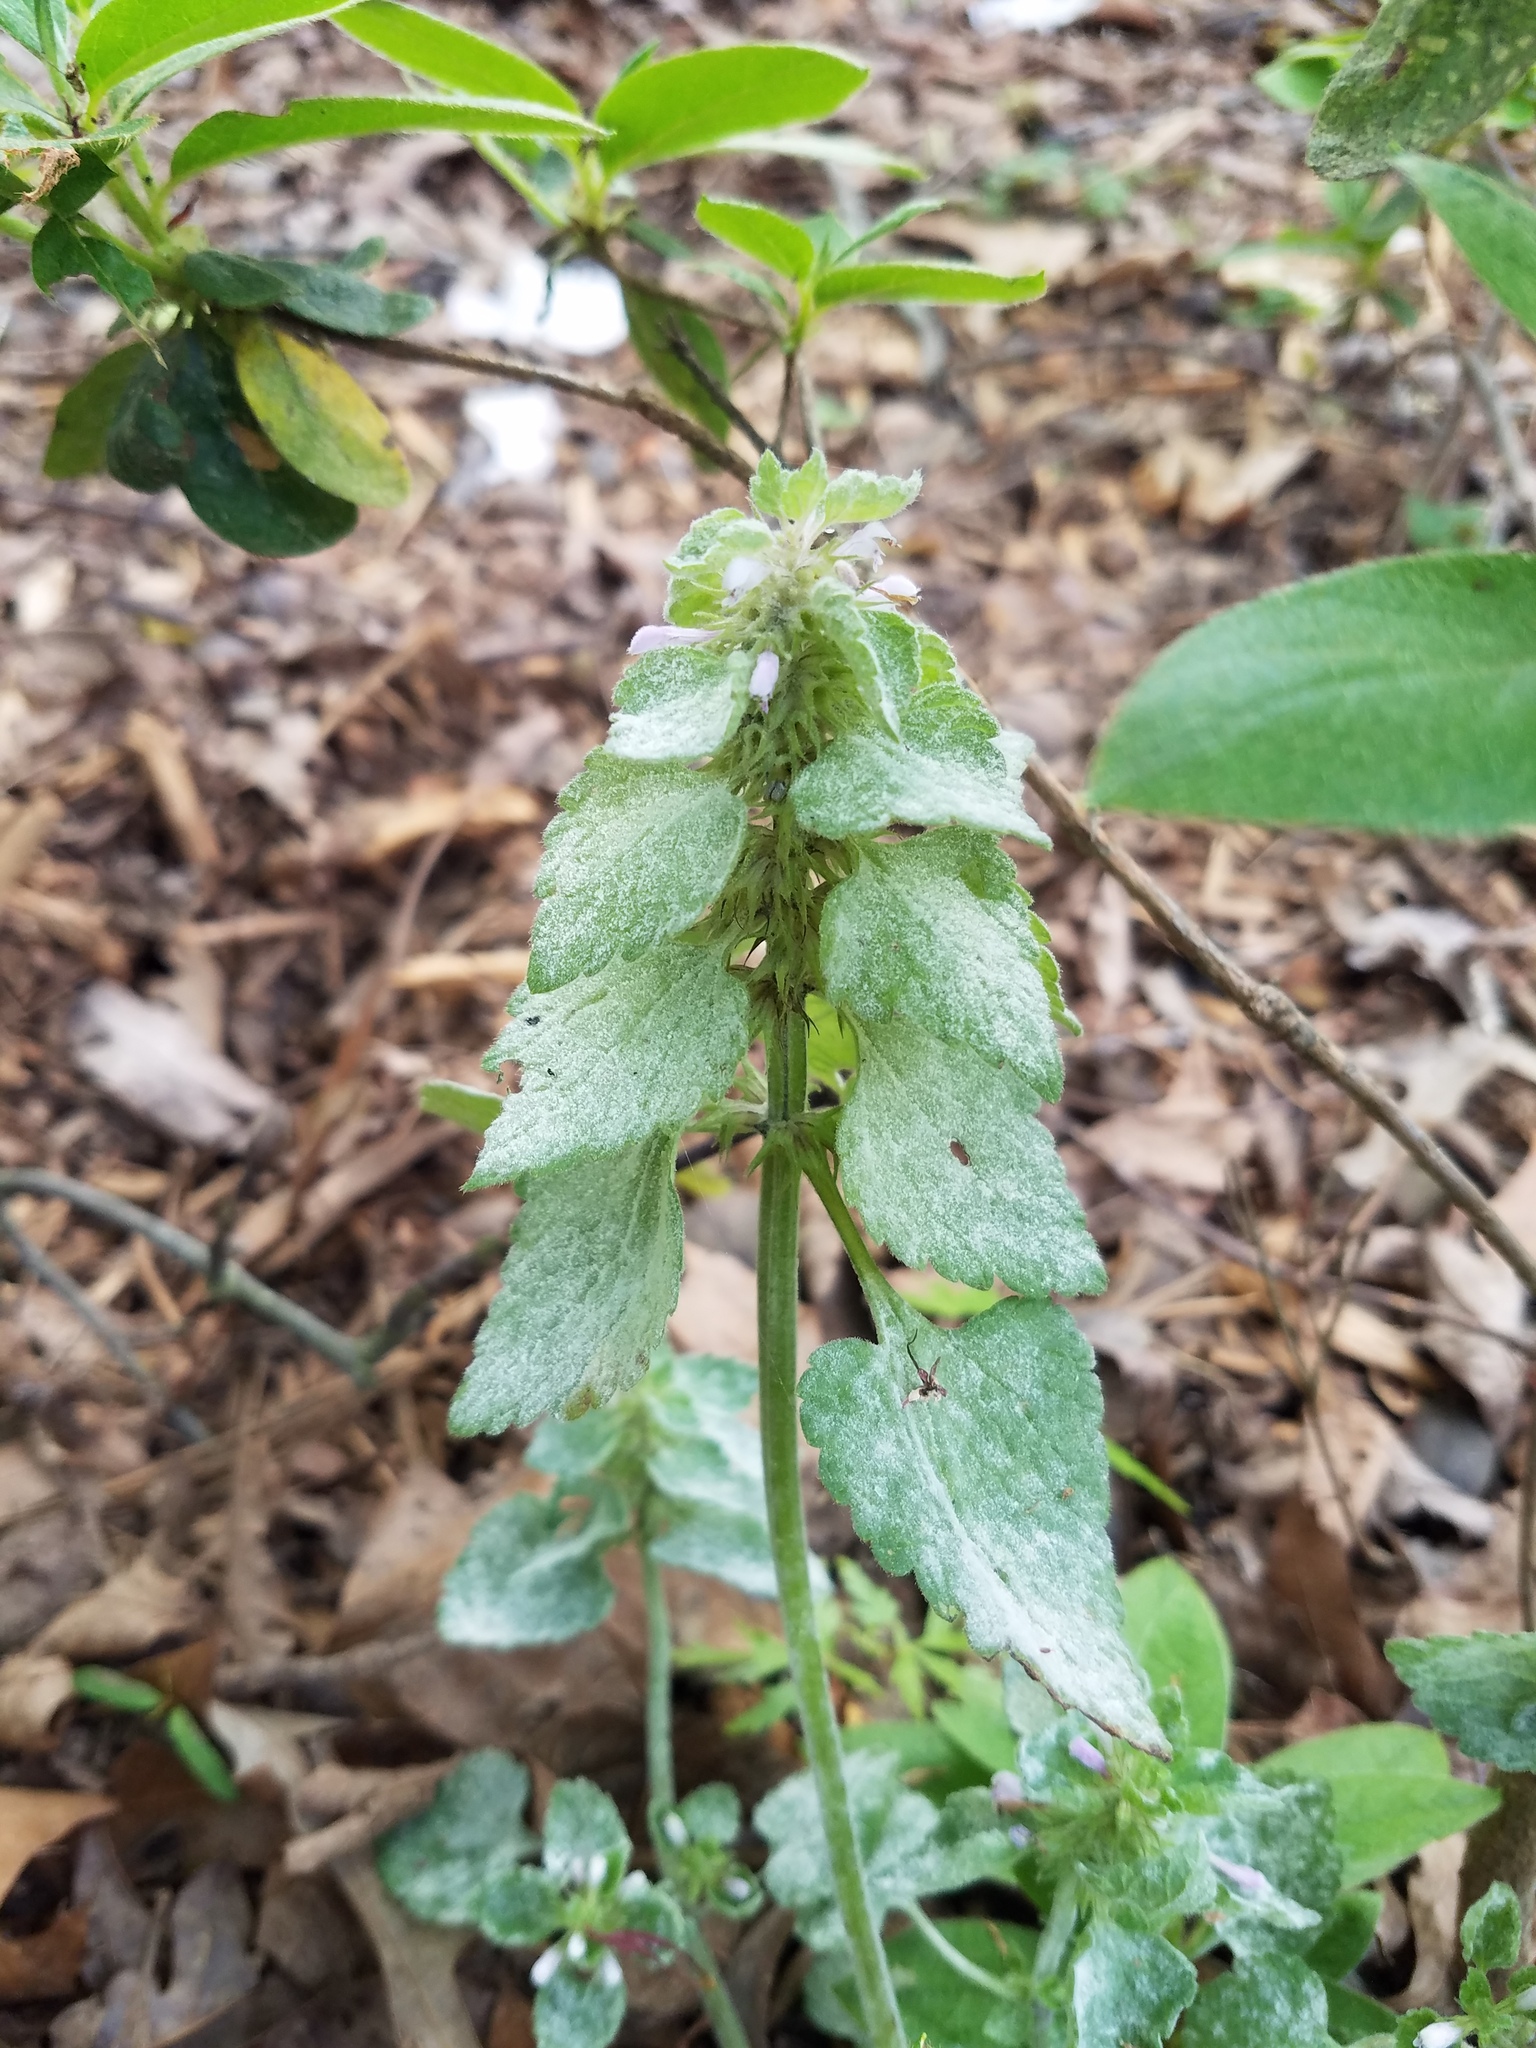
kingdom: Plantae
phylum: Tracheophyta
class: Magnoliopsida
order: Lamiales
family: Lamiaceae
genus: Lamium
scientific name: Lamium purpureum
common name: Red dead-nettle
